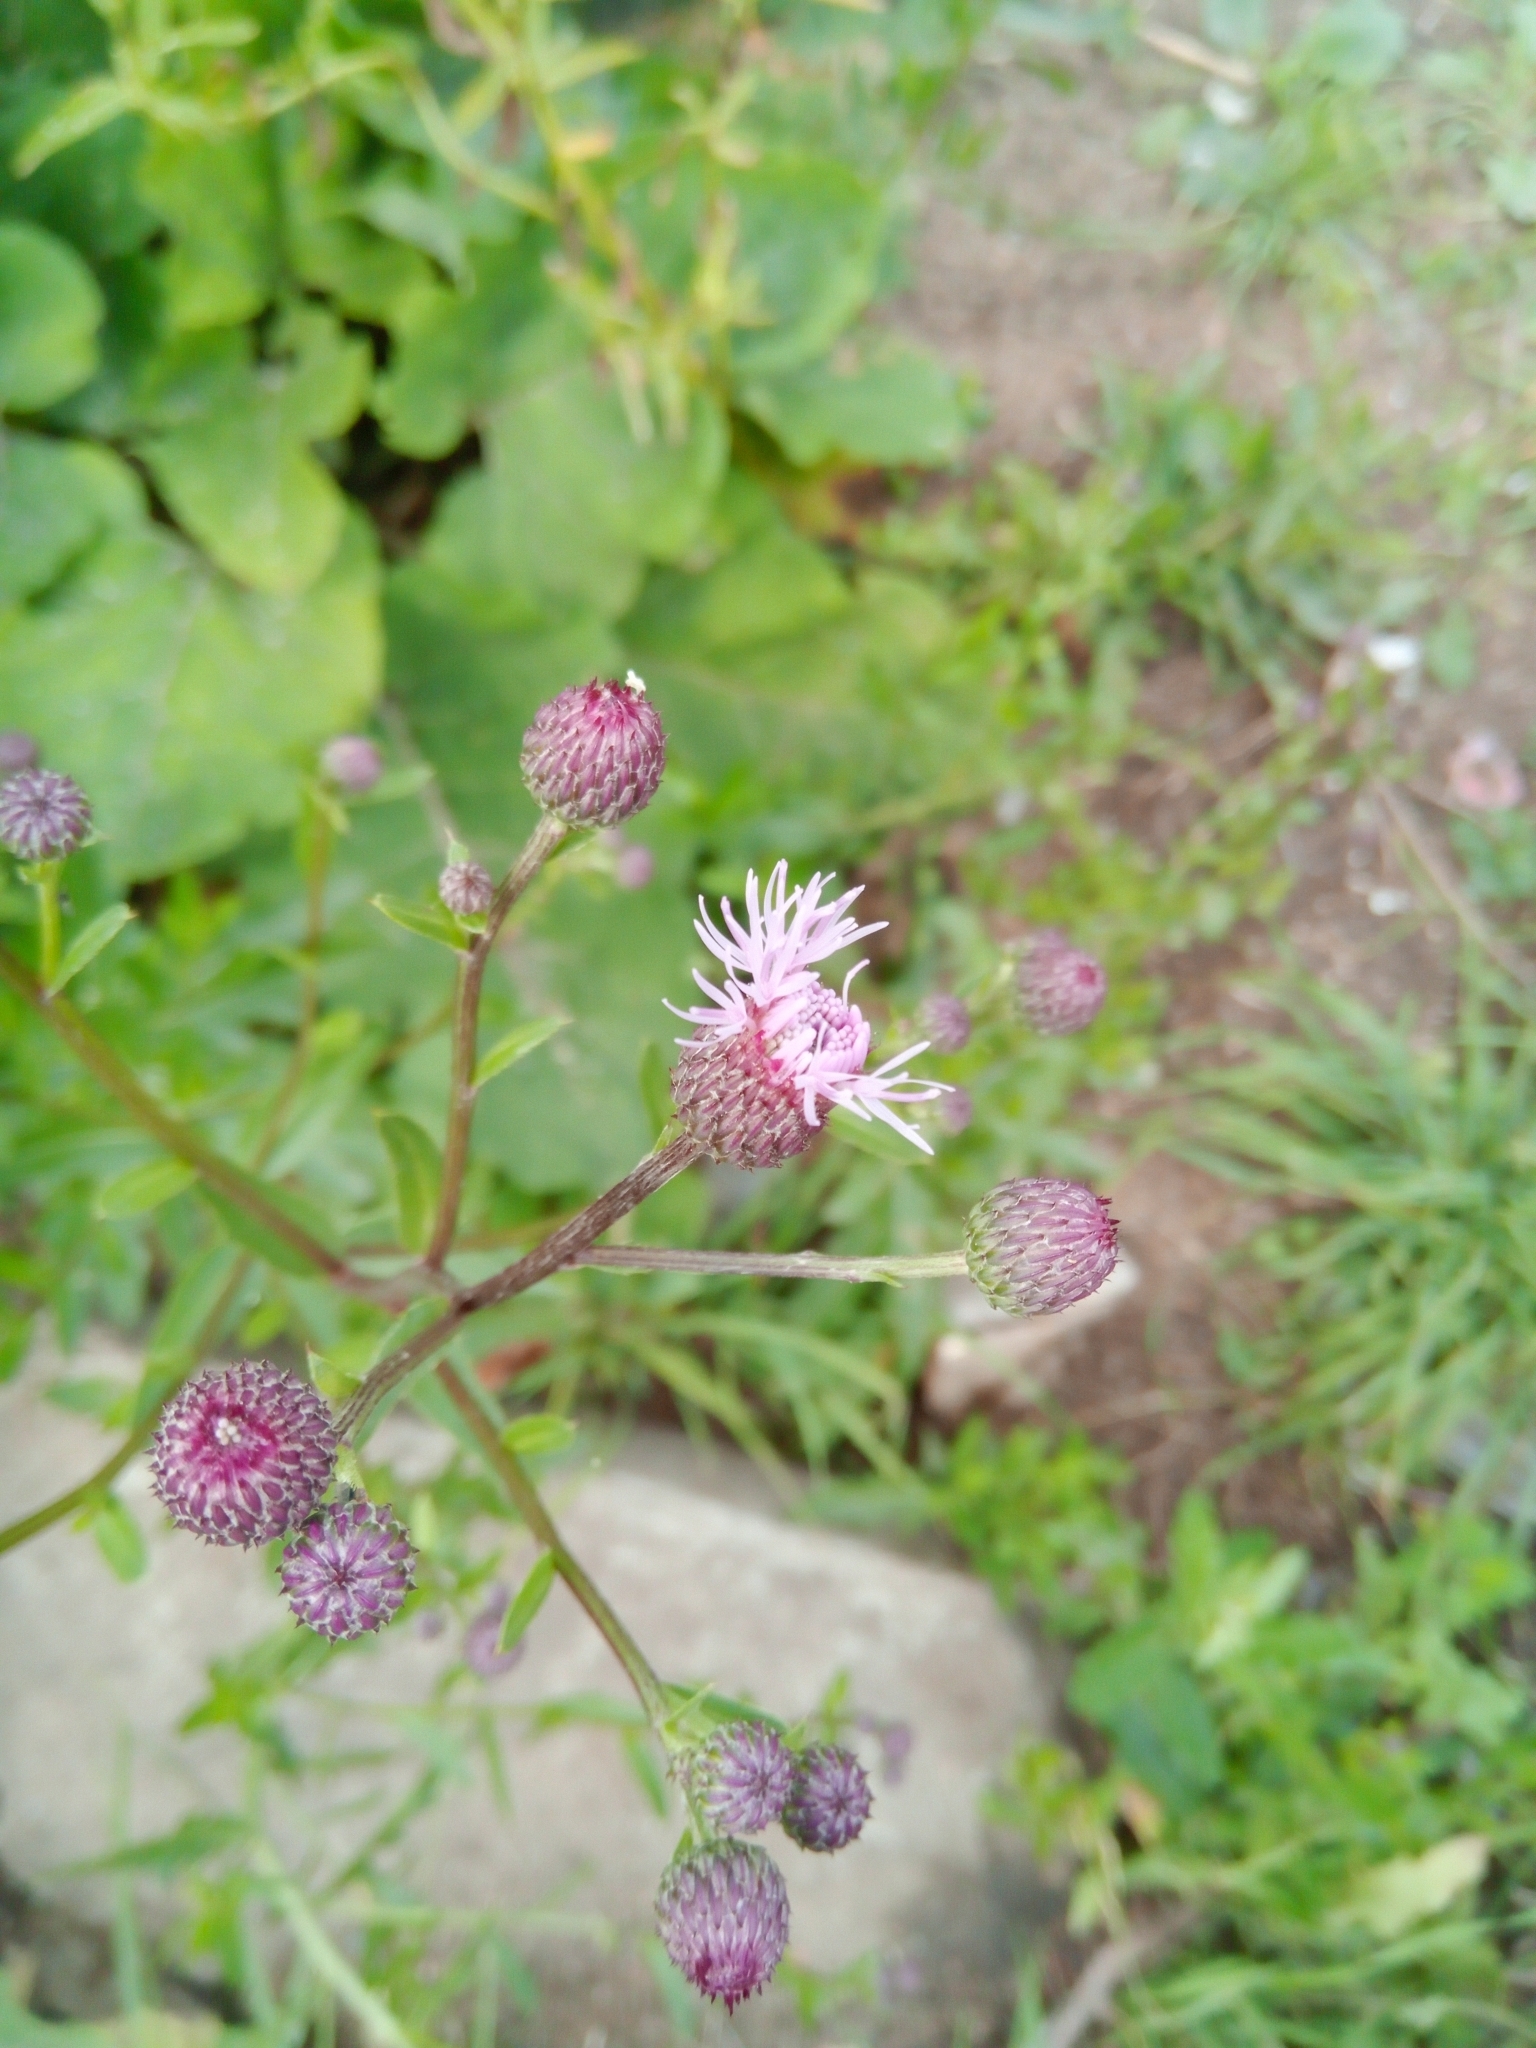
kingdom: Plantae
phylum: Tracheophyta
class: Magnoliopsida
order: Asterales
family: Asteraceae
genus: Cirsium
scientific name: Cirsium arvense
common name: Creeping thistle
